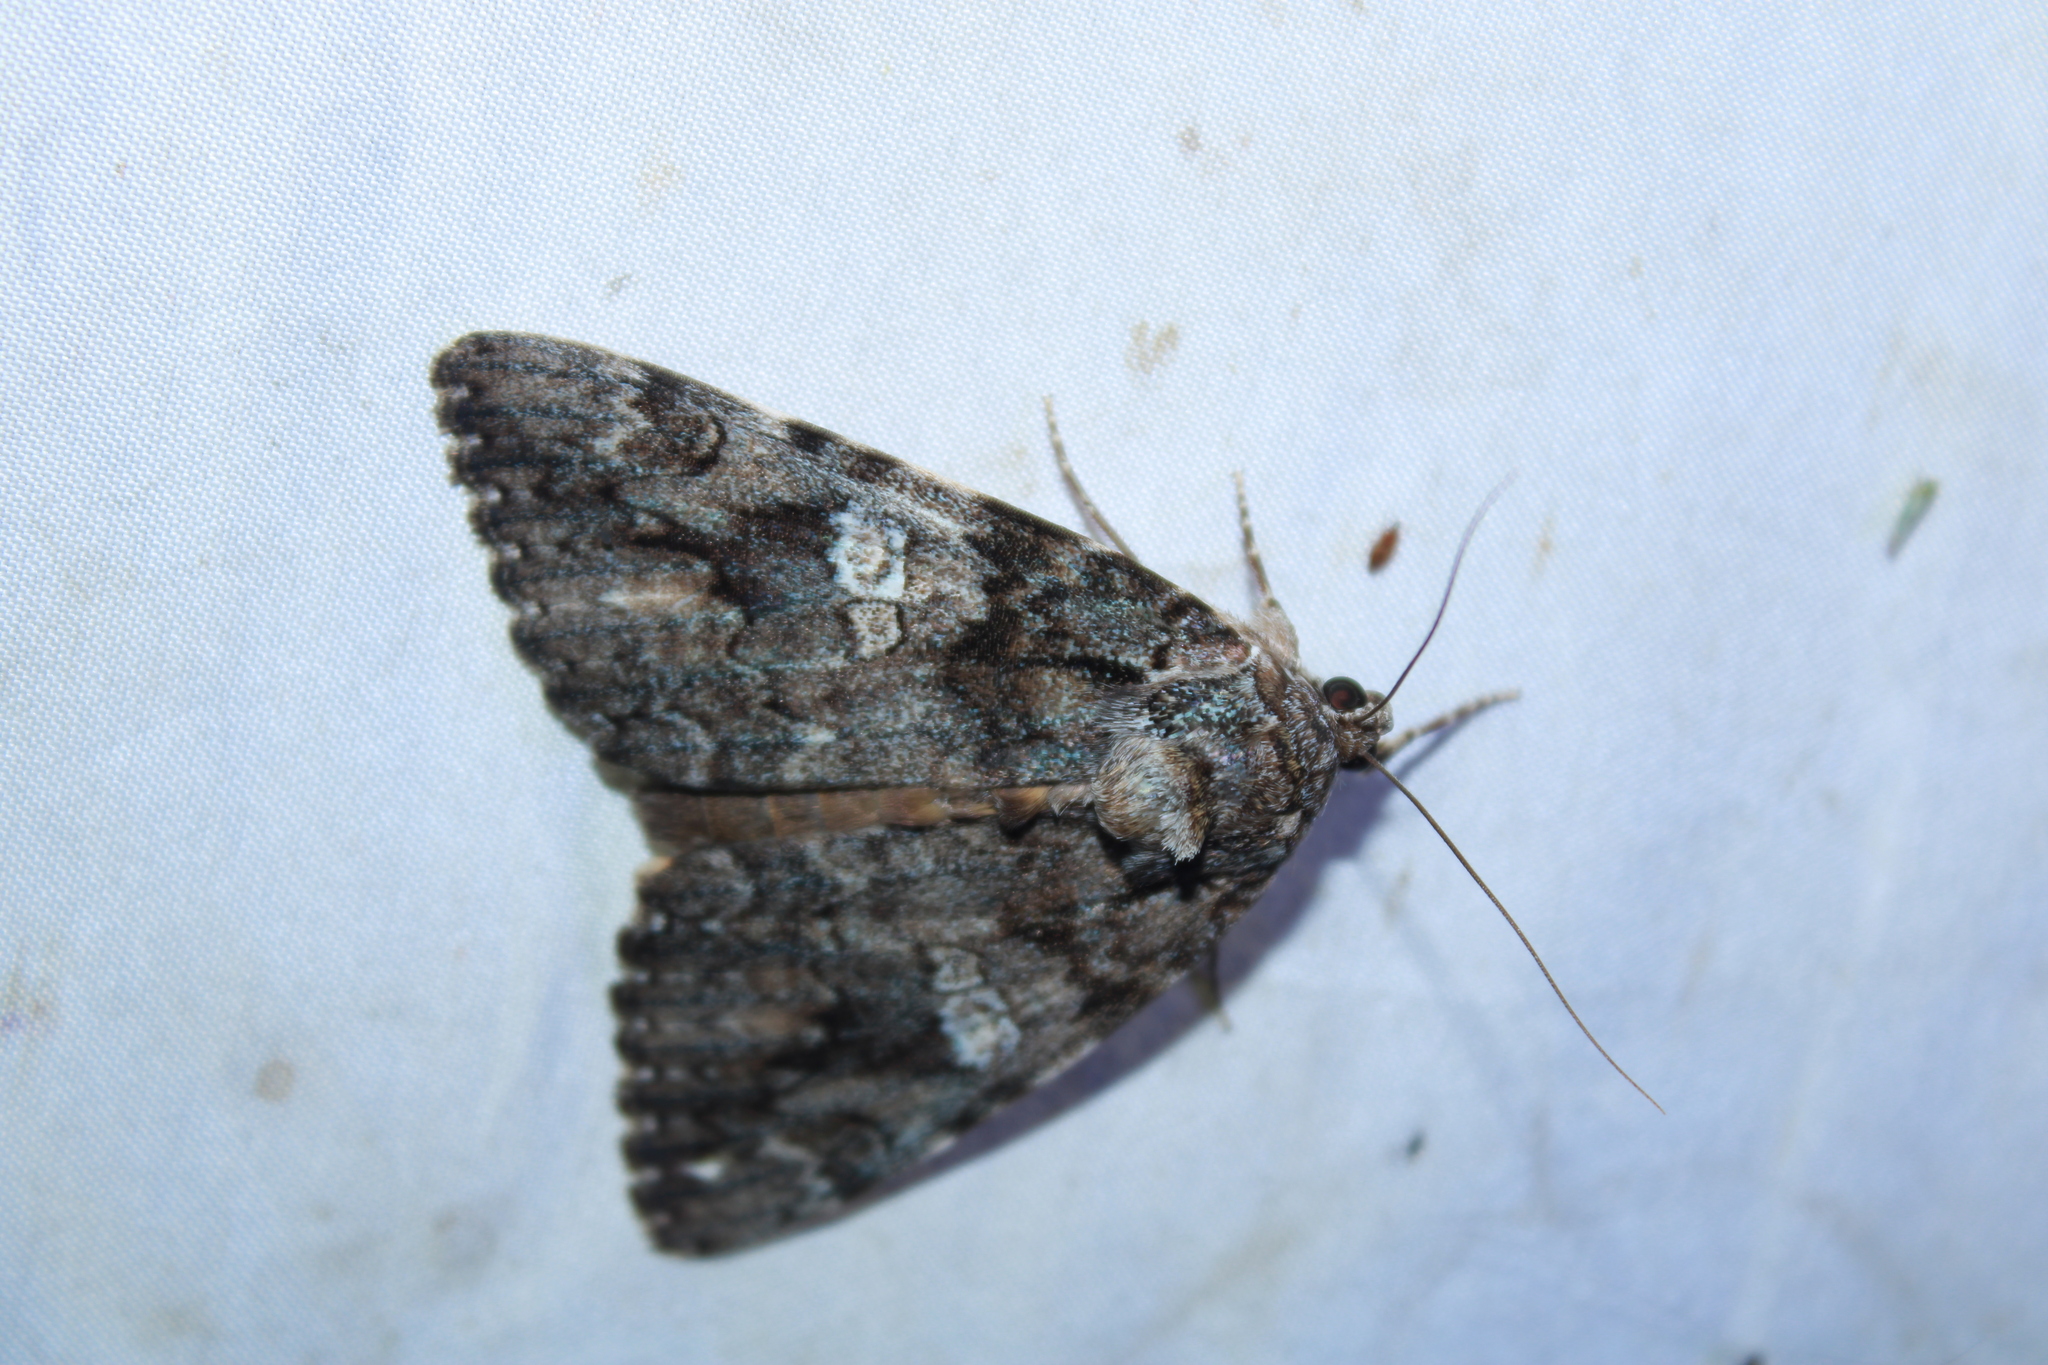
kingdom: Animalia
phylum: Arthropoda
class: Insecta
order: Lepidoptera
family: Erebidae
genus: Catocala
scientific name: Catocala ilia
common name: Ilia underwing
